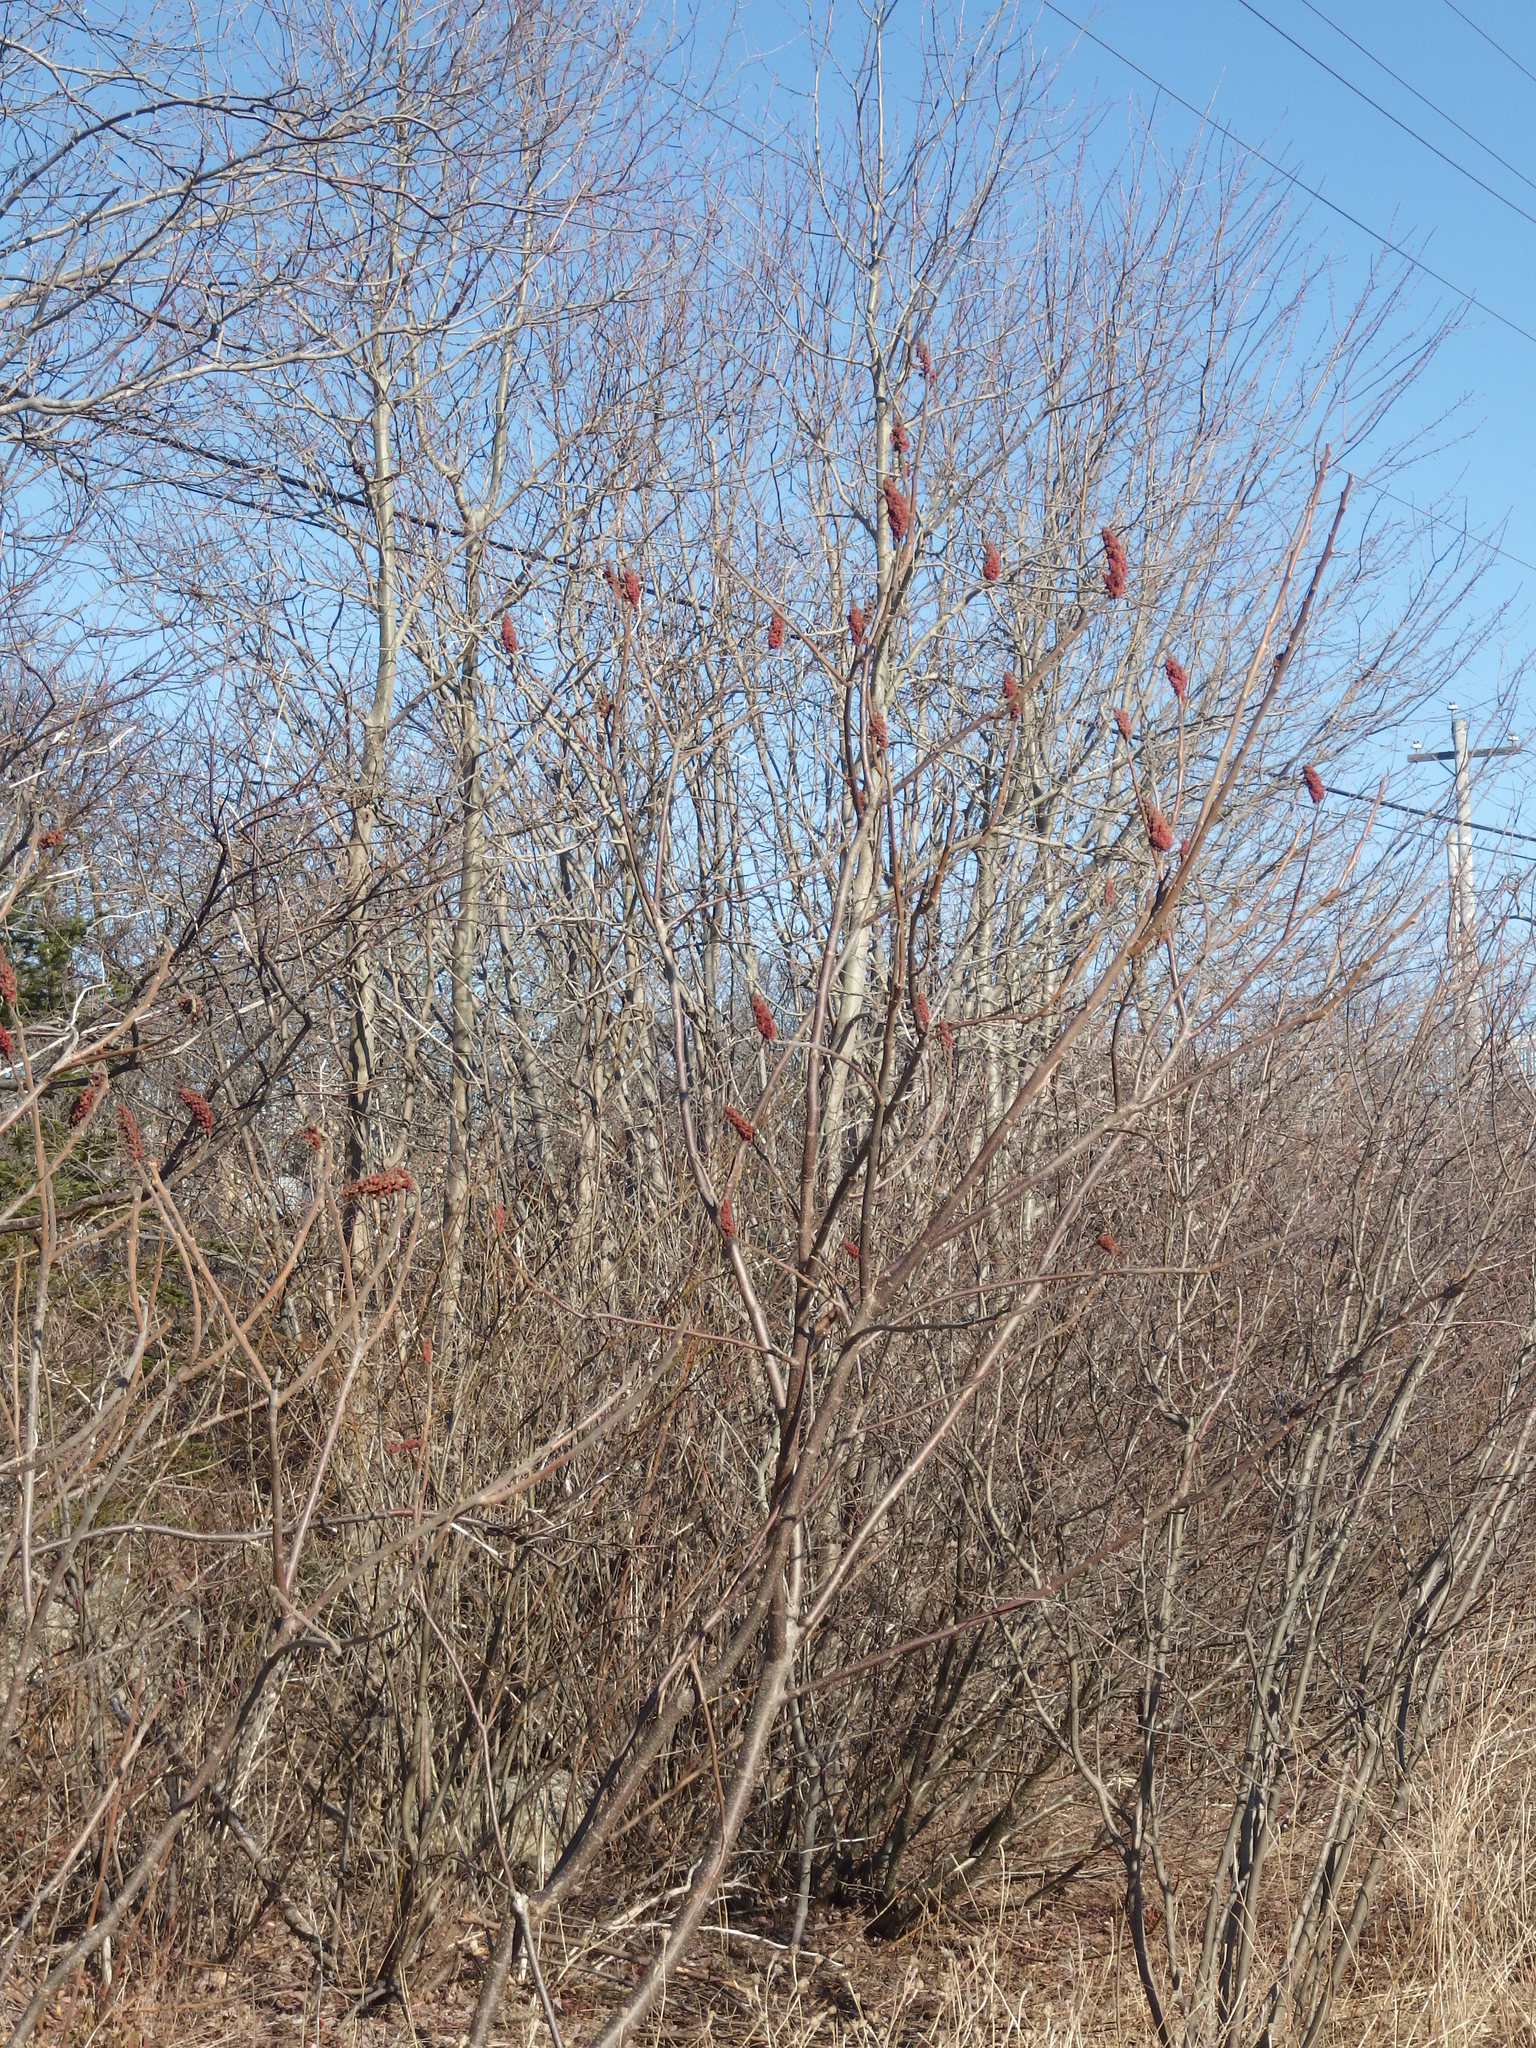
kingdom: Plantae
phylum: Tracheophyta
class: Magnoliopsida
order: Sapindales
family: Anacardiaceae
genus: Rhus
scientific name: Rhus typhina
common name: Staghorn sumac
